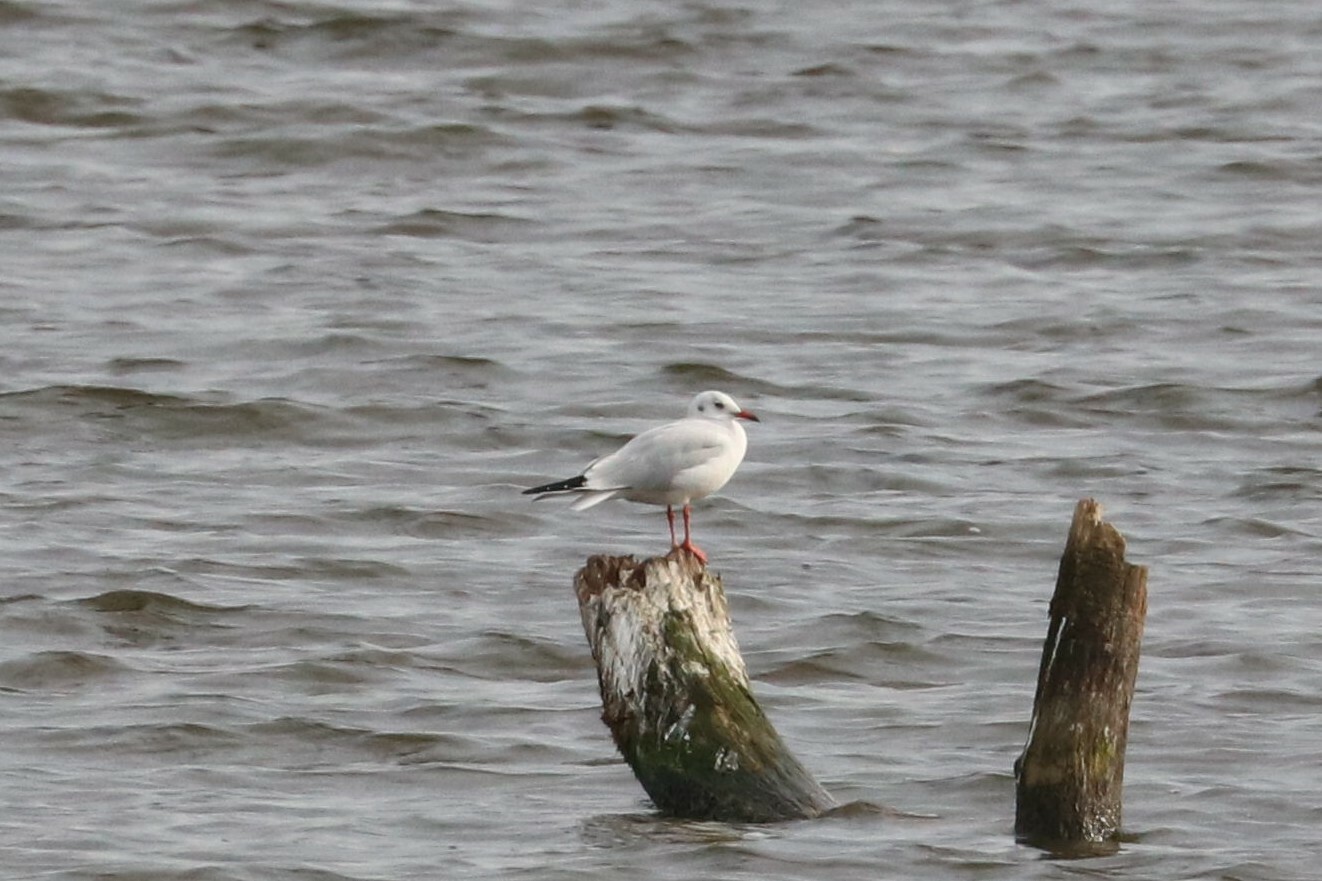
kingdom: Animalia
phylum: Chordata
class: Aves
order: Charadriiformes
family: Laridae
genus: Chroicocephalus
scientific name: Chroicocephalus ridibundus
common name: Black-headed gull
